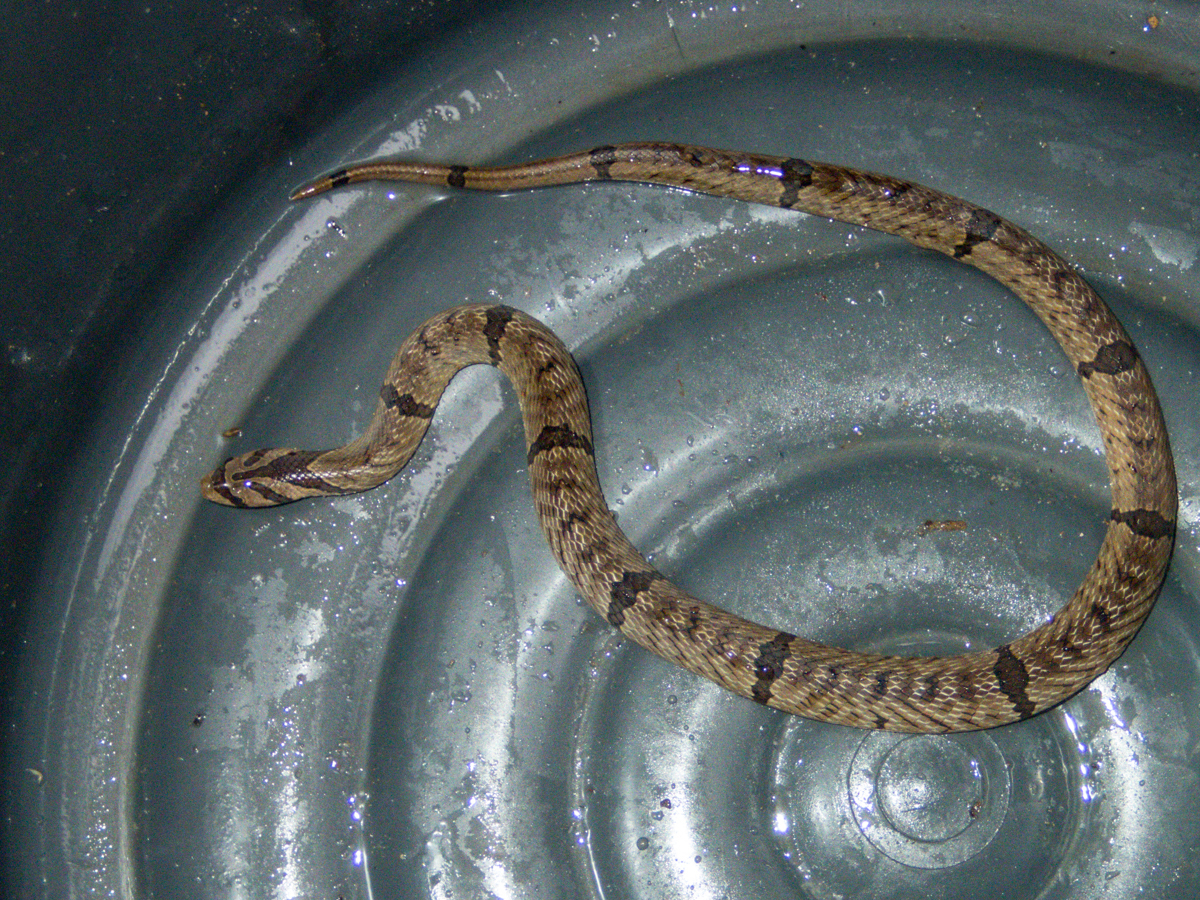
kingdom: Animalia
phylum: Chordata
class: Squamata
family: Colubridae
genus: Oligodon
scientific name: Oligodon fasciolatus
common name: Fasciolated kukri snake
